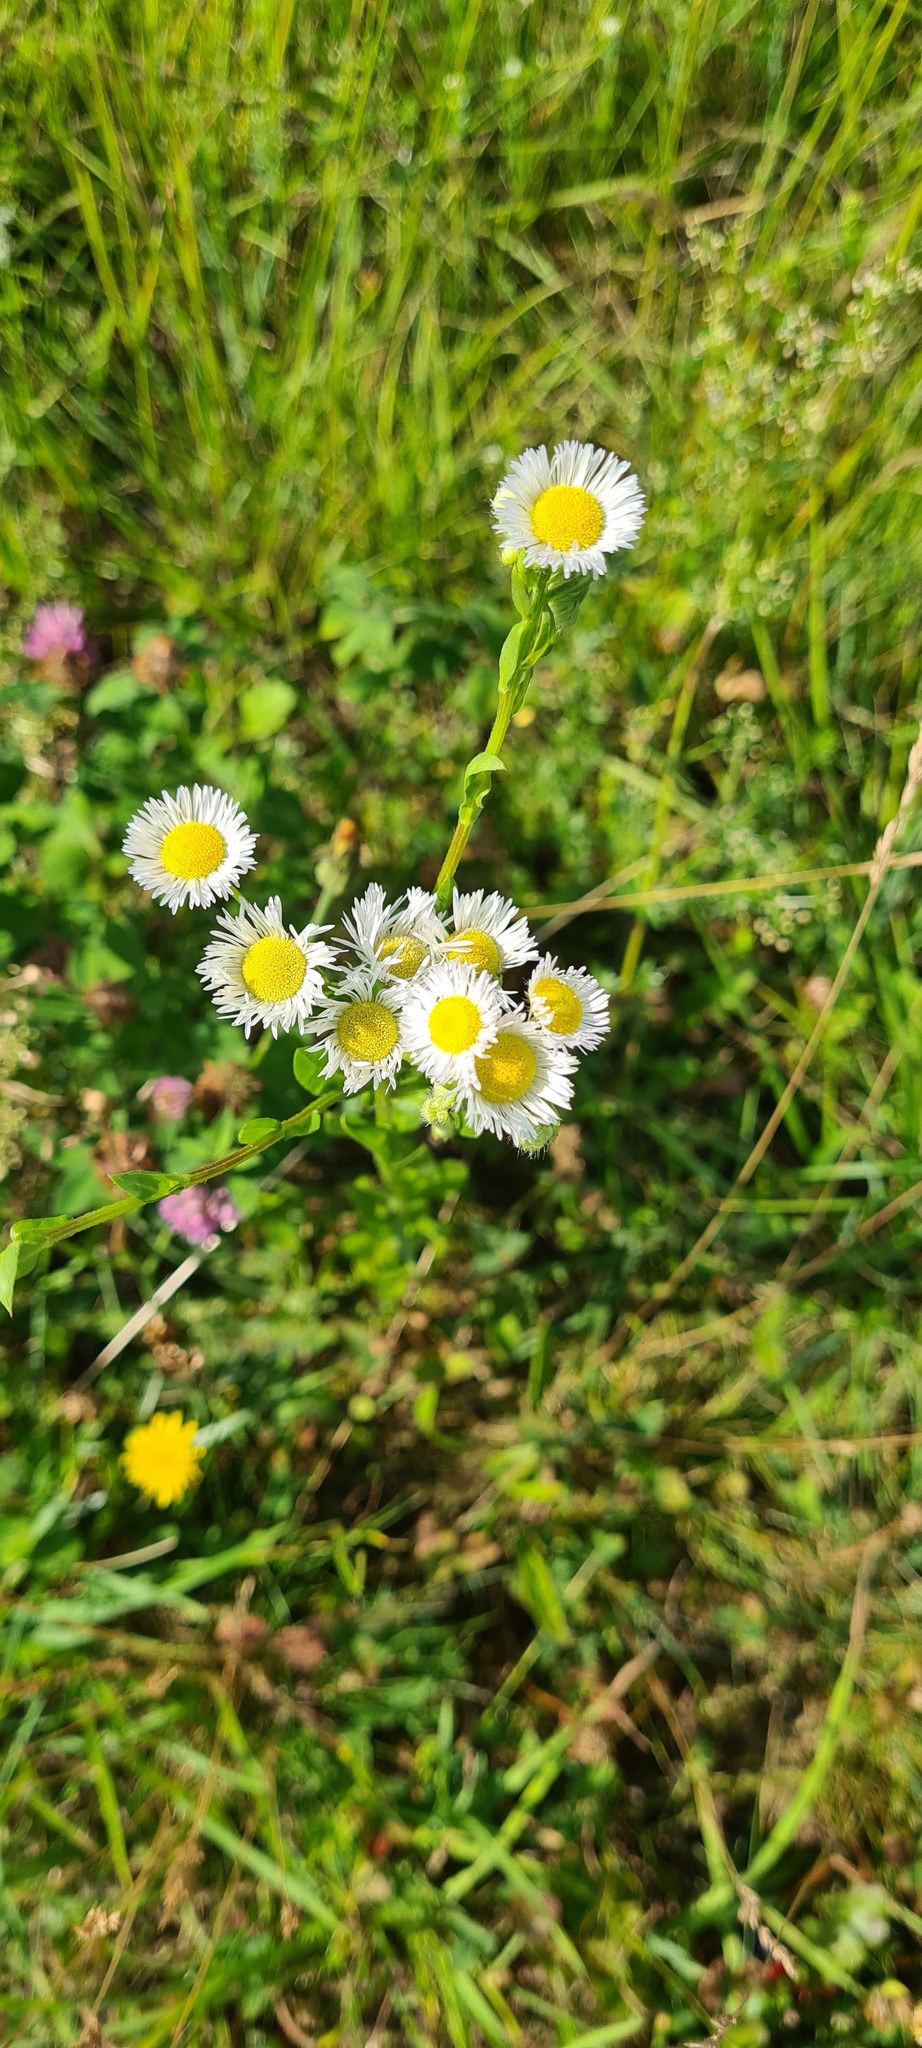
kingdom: Plantae
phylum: Tracheophyta
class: Magnoliopsida
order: Asterales
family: Asteraceae
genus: Erigeron
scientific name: Erigeron annuus
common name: Tall fleabane
